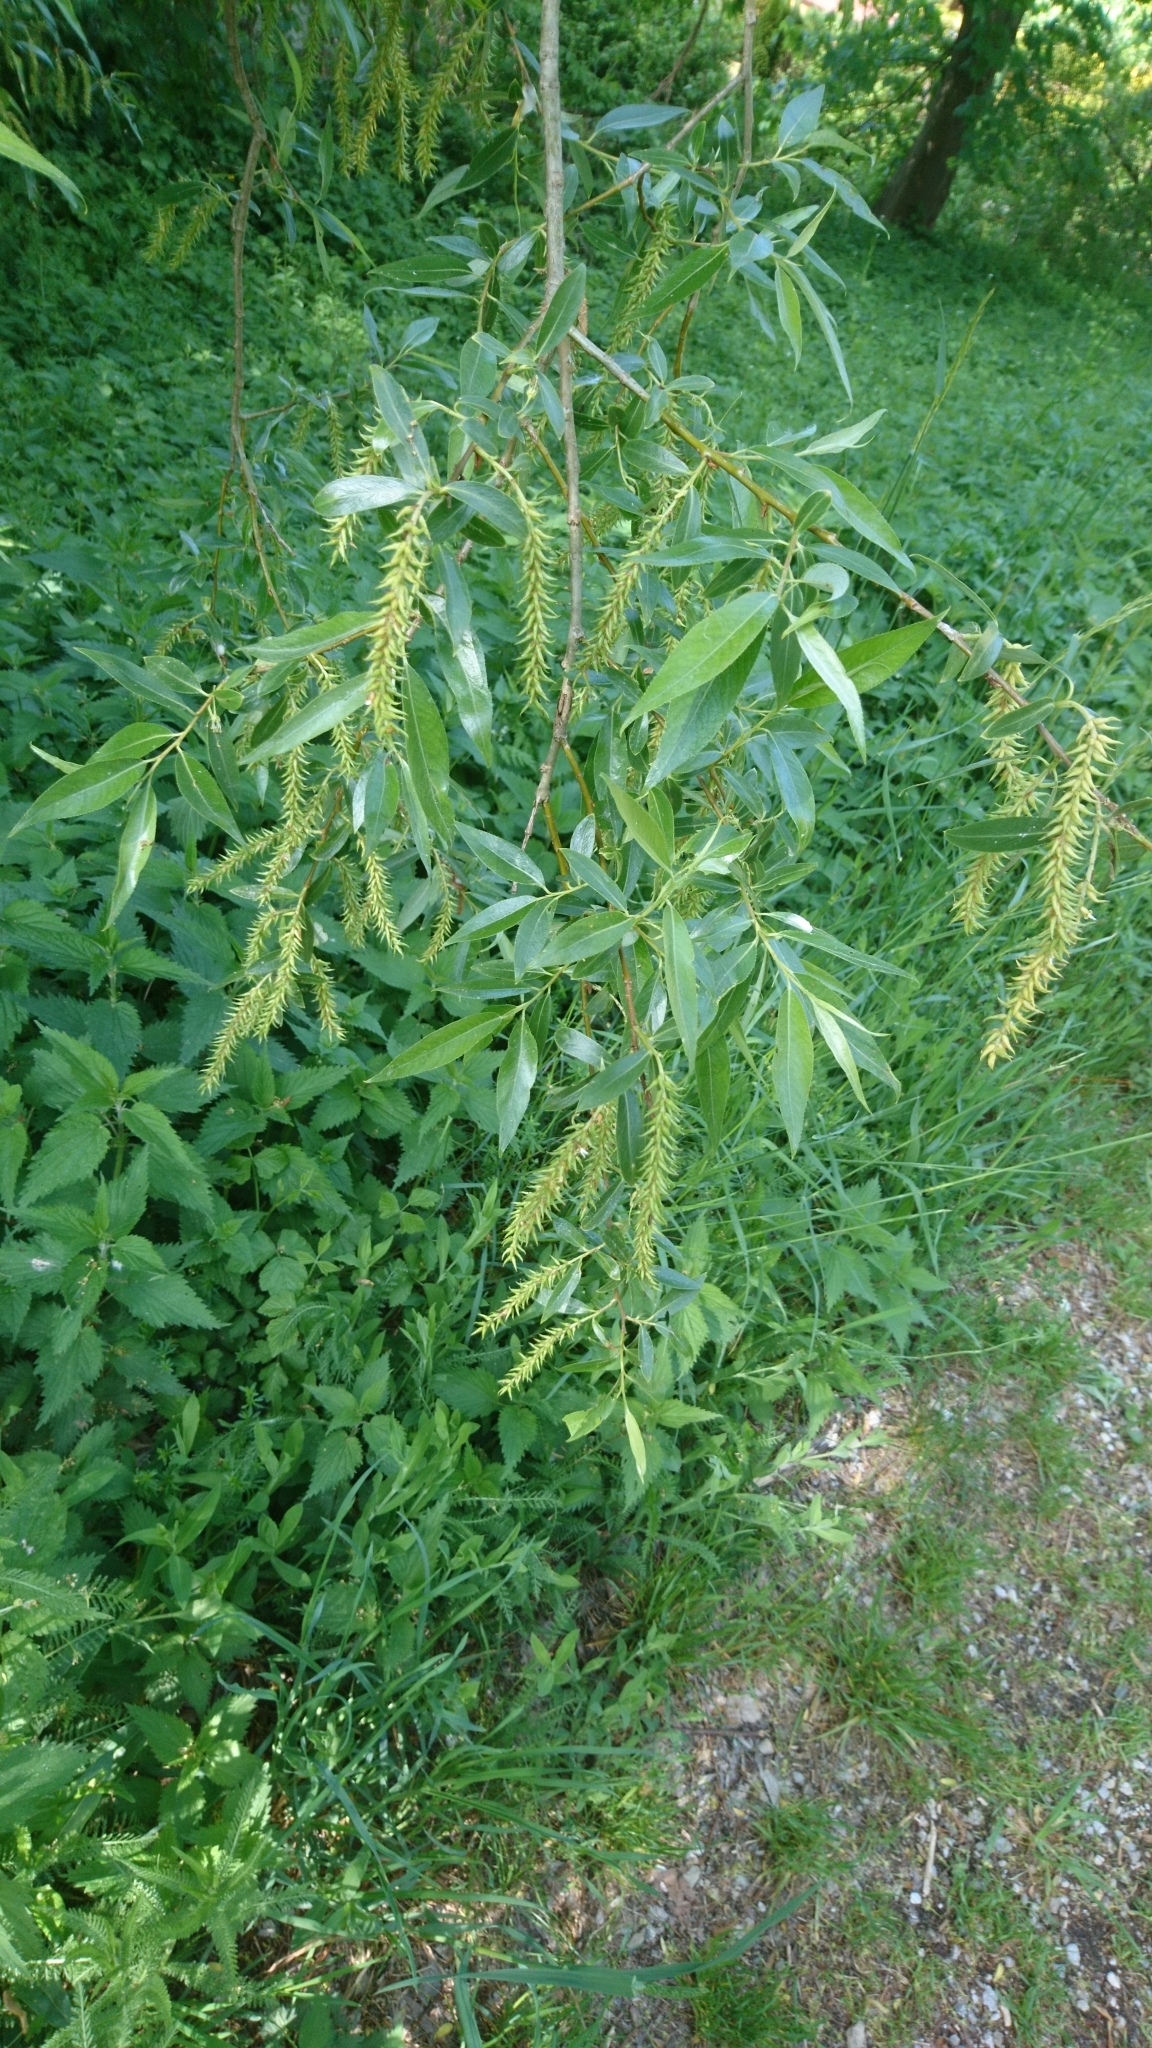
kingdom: Plantae
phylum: Tracheophyta
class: Magnoliopsida
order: Malpighiales
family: Salicaceae
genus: Salix
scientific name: Salix alba
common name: White willow
